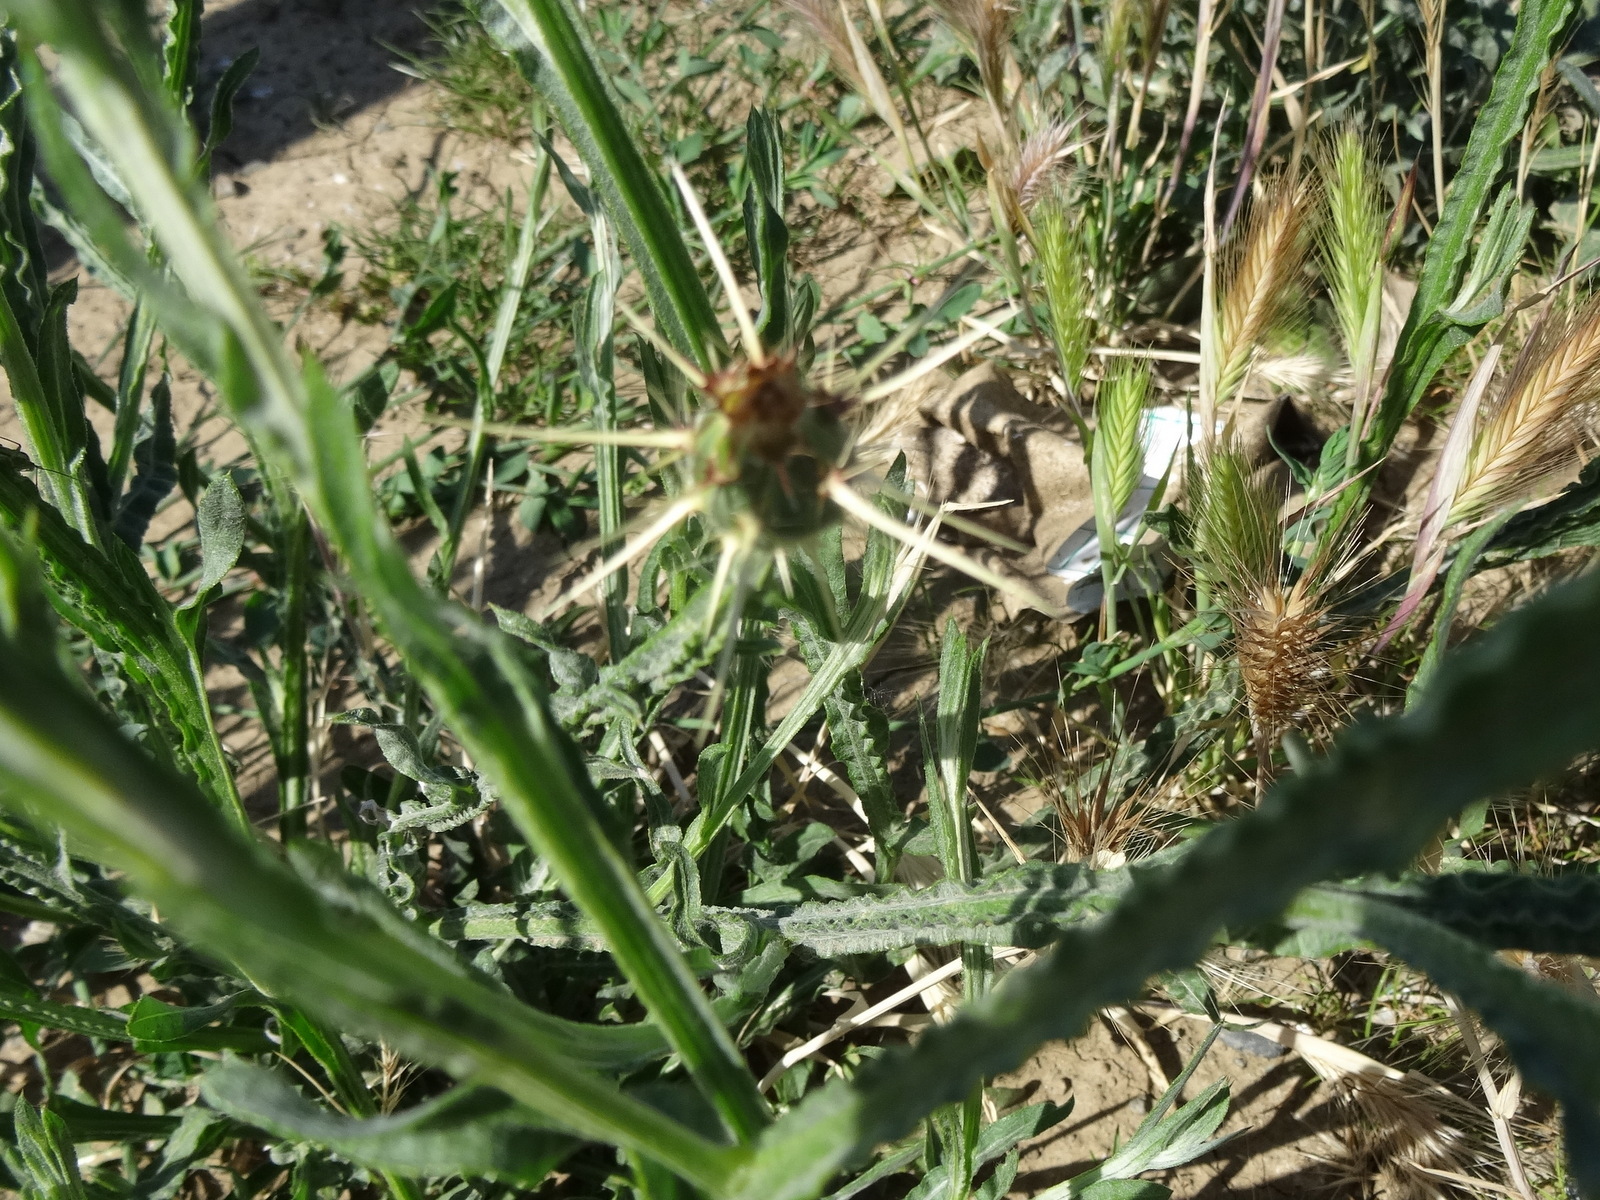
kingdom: Plantae
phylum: Tracheophyta
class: Magnoliopsida
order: Asterales
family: Asteraceae
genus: Centaurea
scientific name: Centaurea solstitialis
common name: Yellow star-thistle
